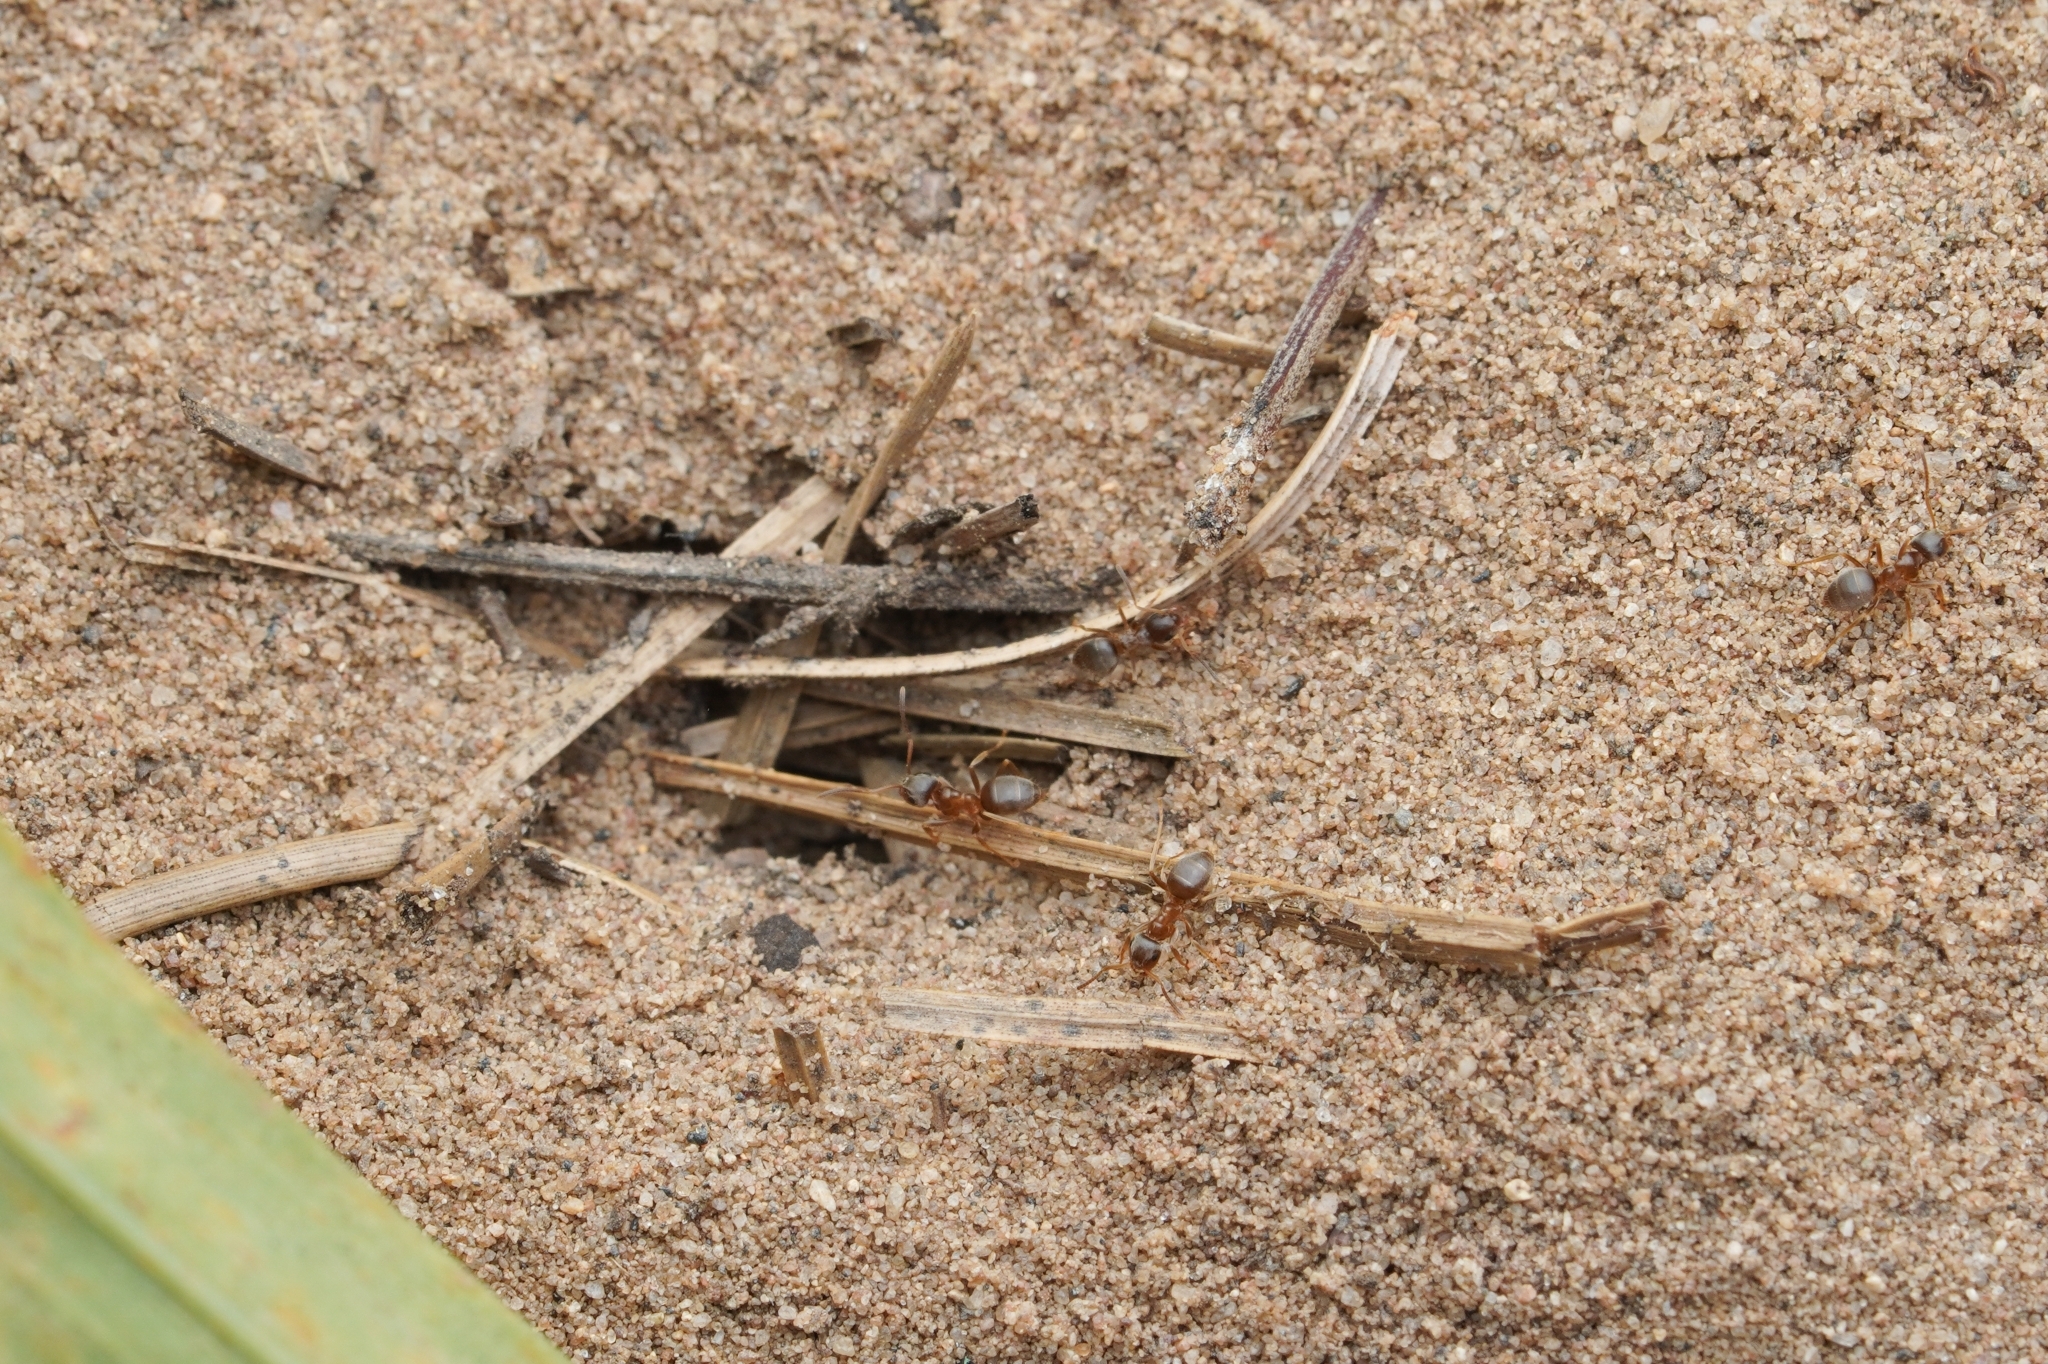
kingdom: Animalia
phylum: Arthropoda
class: Insecta
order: Hymenoptera
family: Formicidae
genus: Lasius
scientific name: Lasius neoniger
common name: Turfgrass ant
